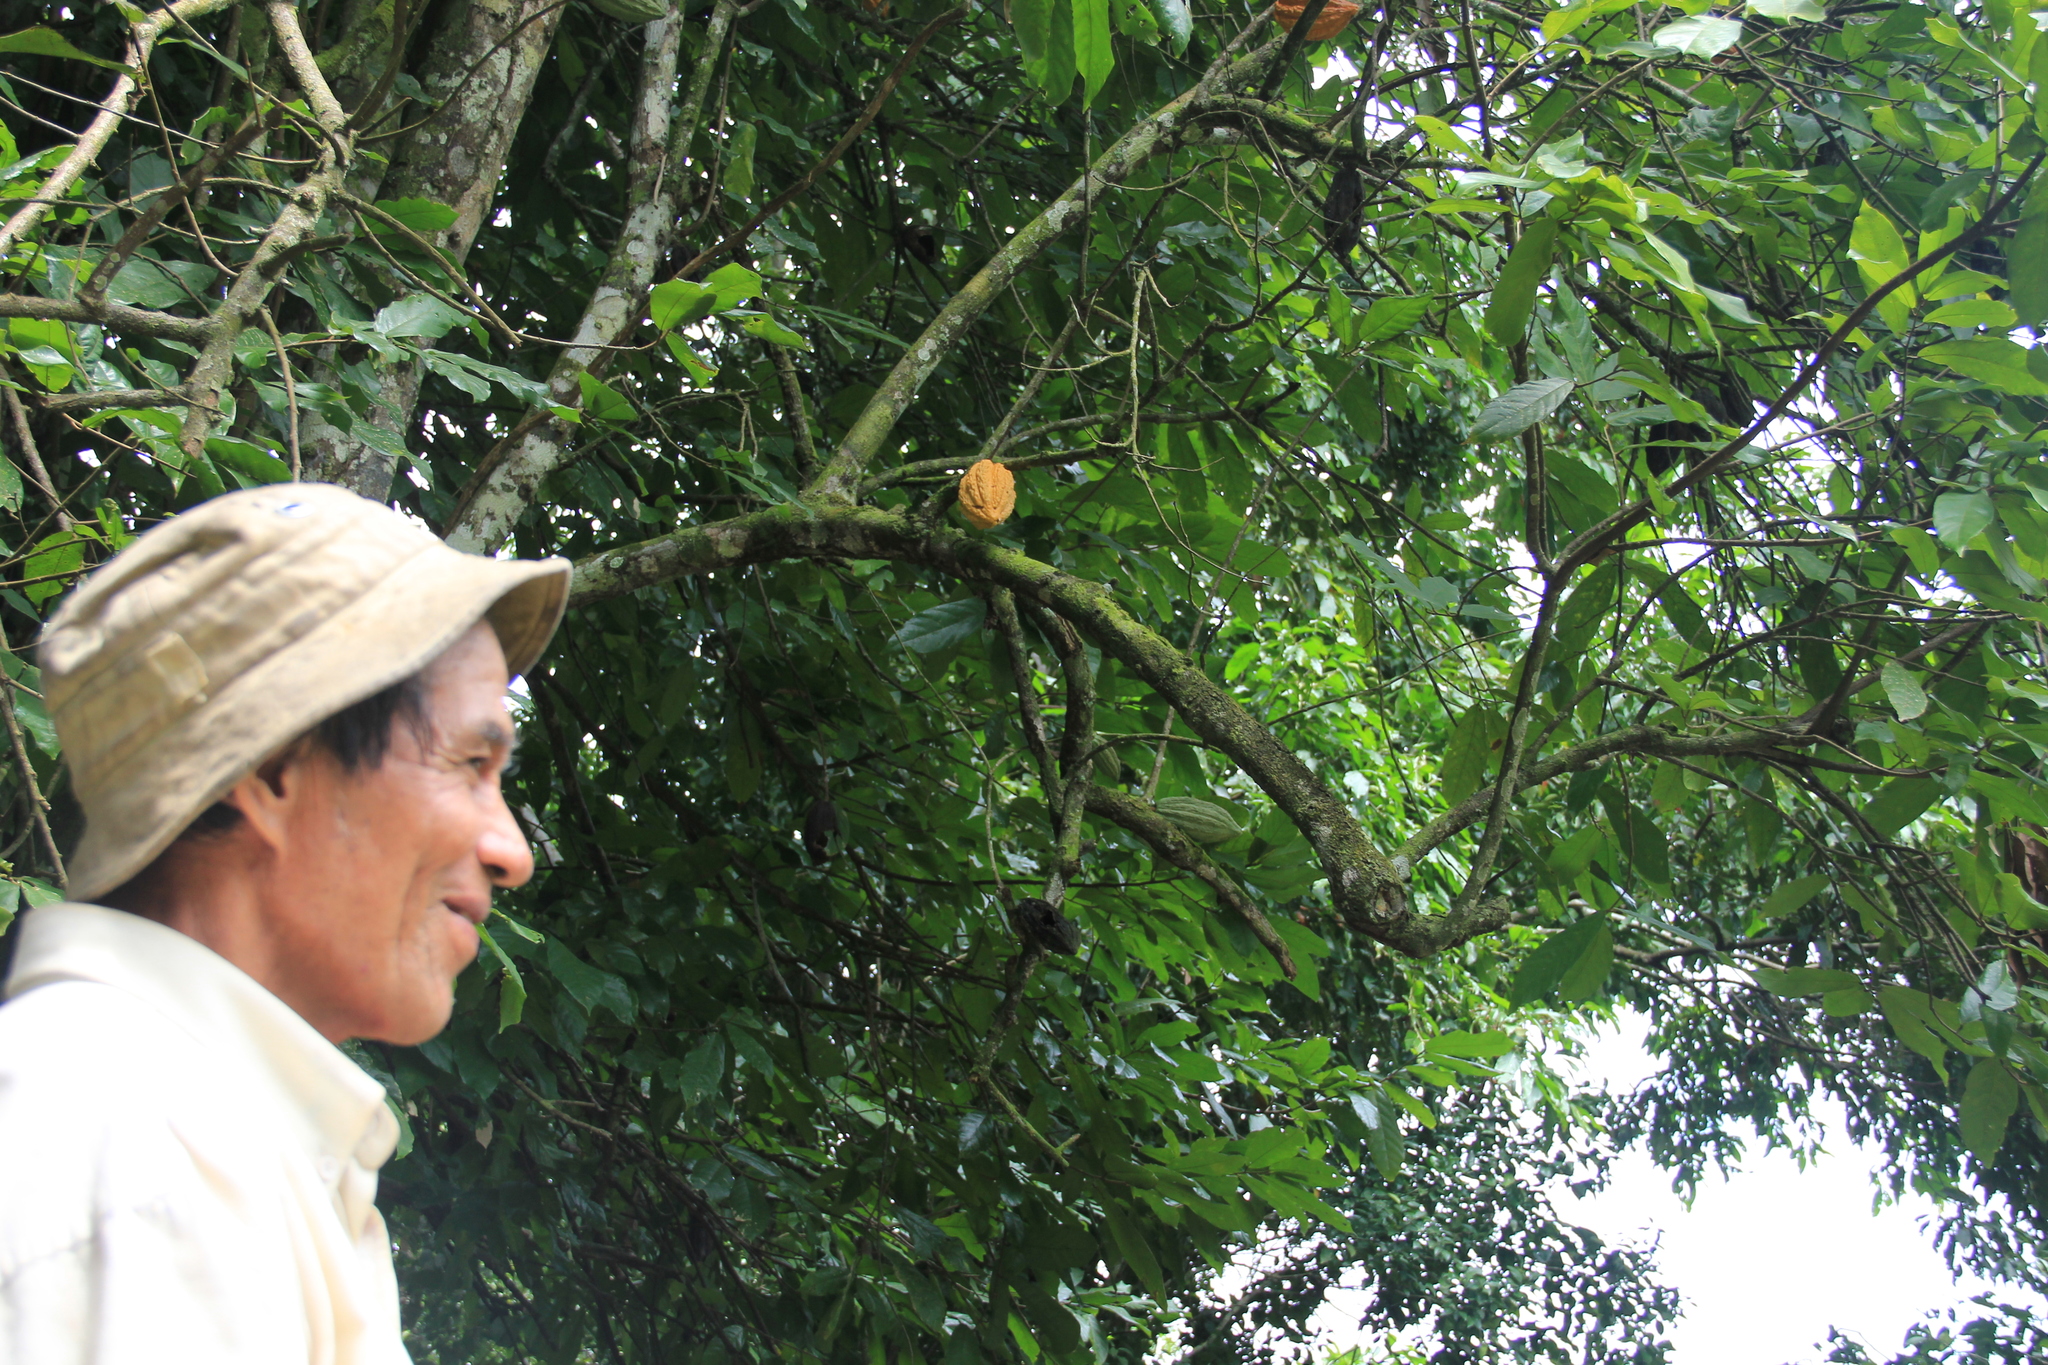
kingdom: Plantae
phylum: Tracheophyta
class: Magnoliopsida
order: Malvales
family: Malvaceae
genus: Theobroma
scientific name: Theobroma cacao
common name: Cocoa
